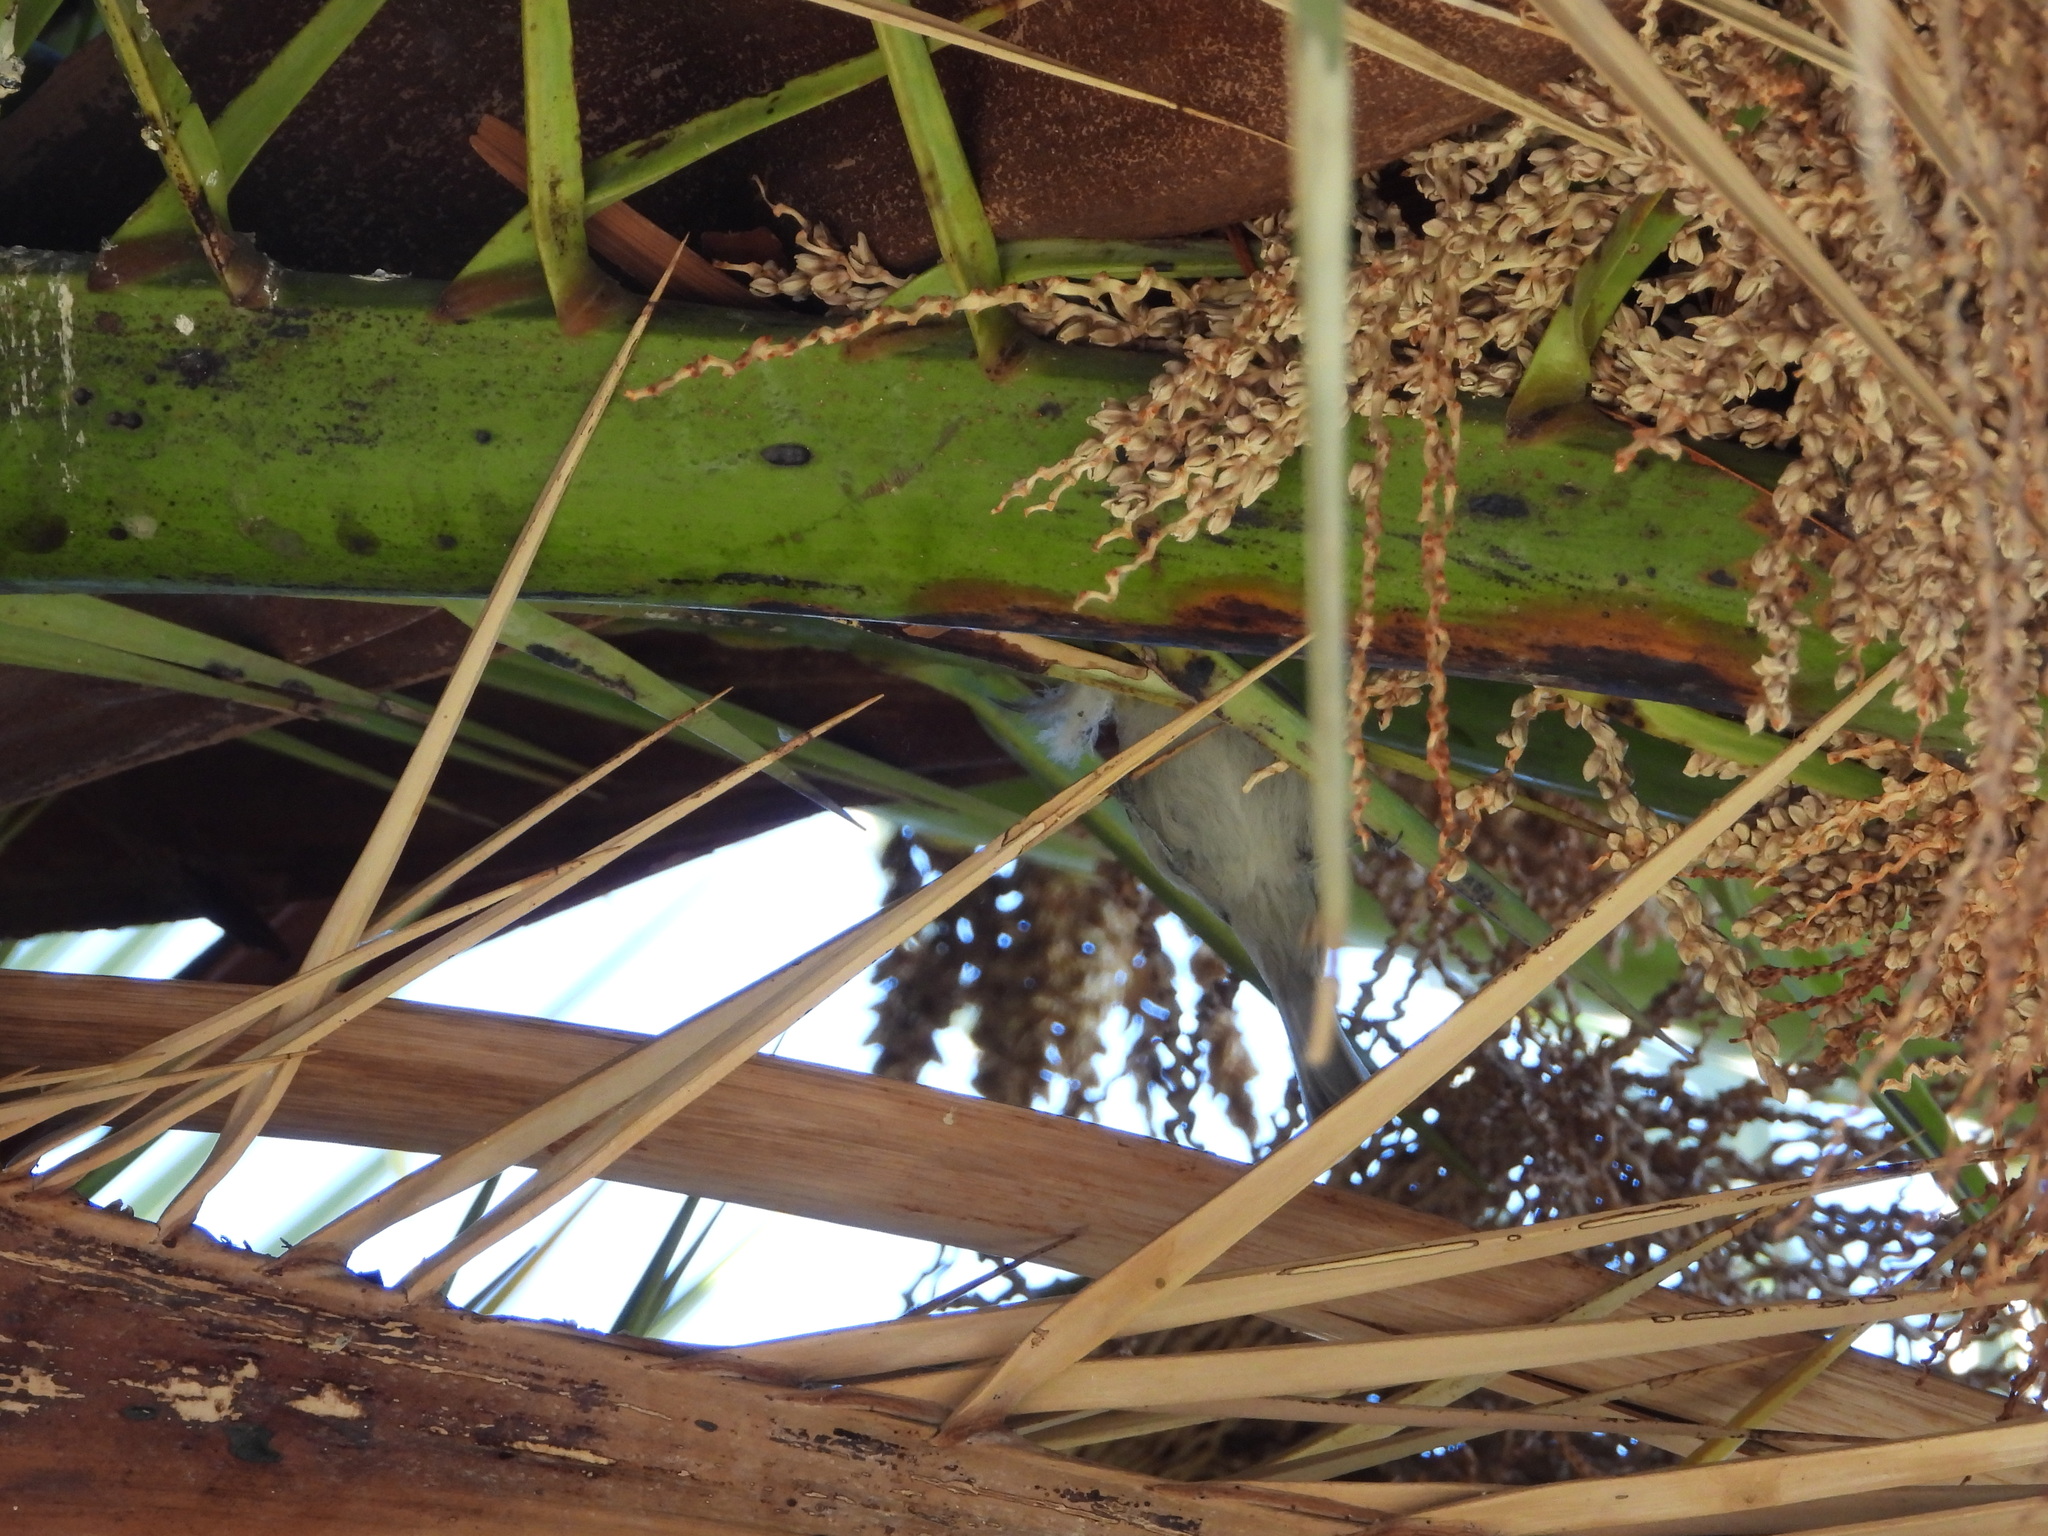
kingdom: Animalia
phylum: Chordata
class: Aves
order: Passeriformes
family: Remizidae
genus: Auriparus
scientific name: Auriparus flaviceps
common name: Verdin
